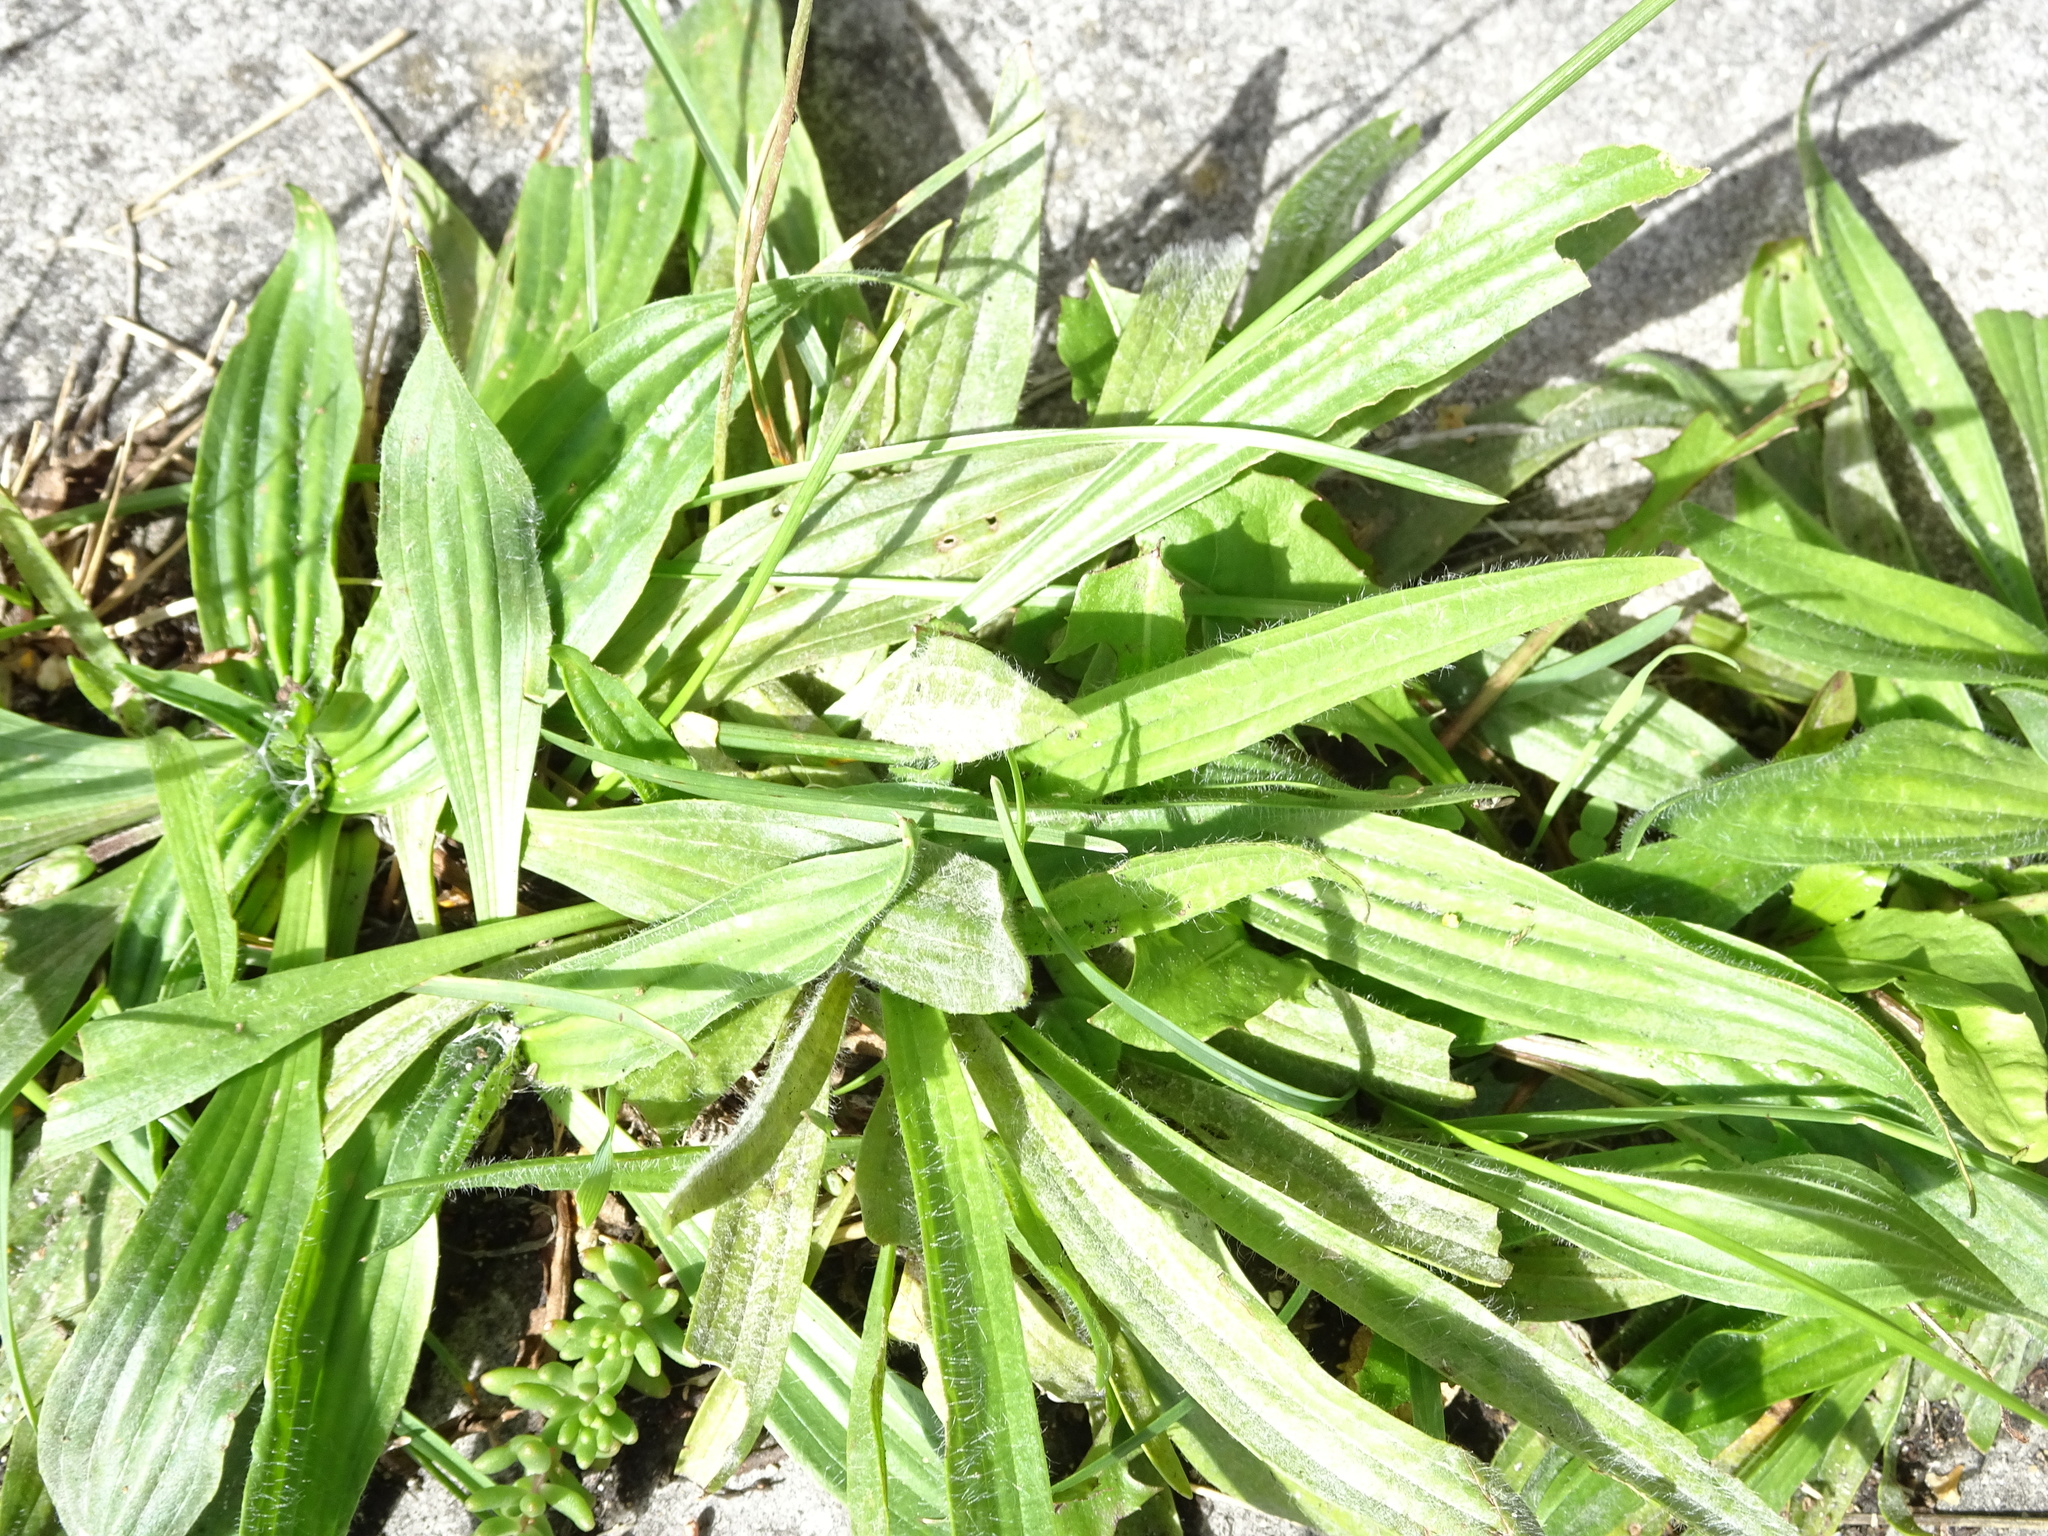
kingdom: Plantae
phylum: Tracheophyta
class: Magnoliopsida
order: Lamiales
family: Plantaginaceae
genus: Plantago
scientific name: Plantago lanceolata
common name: Ribwort plantain
